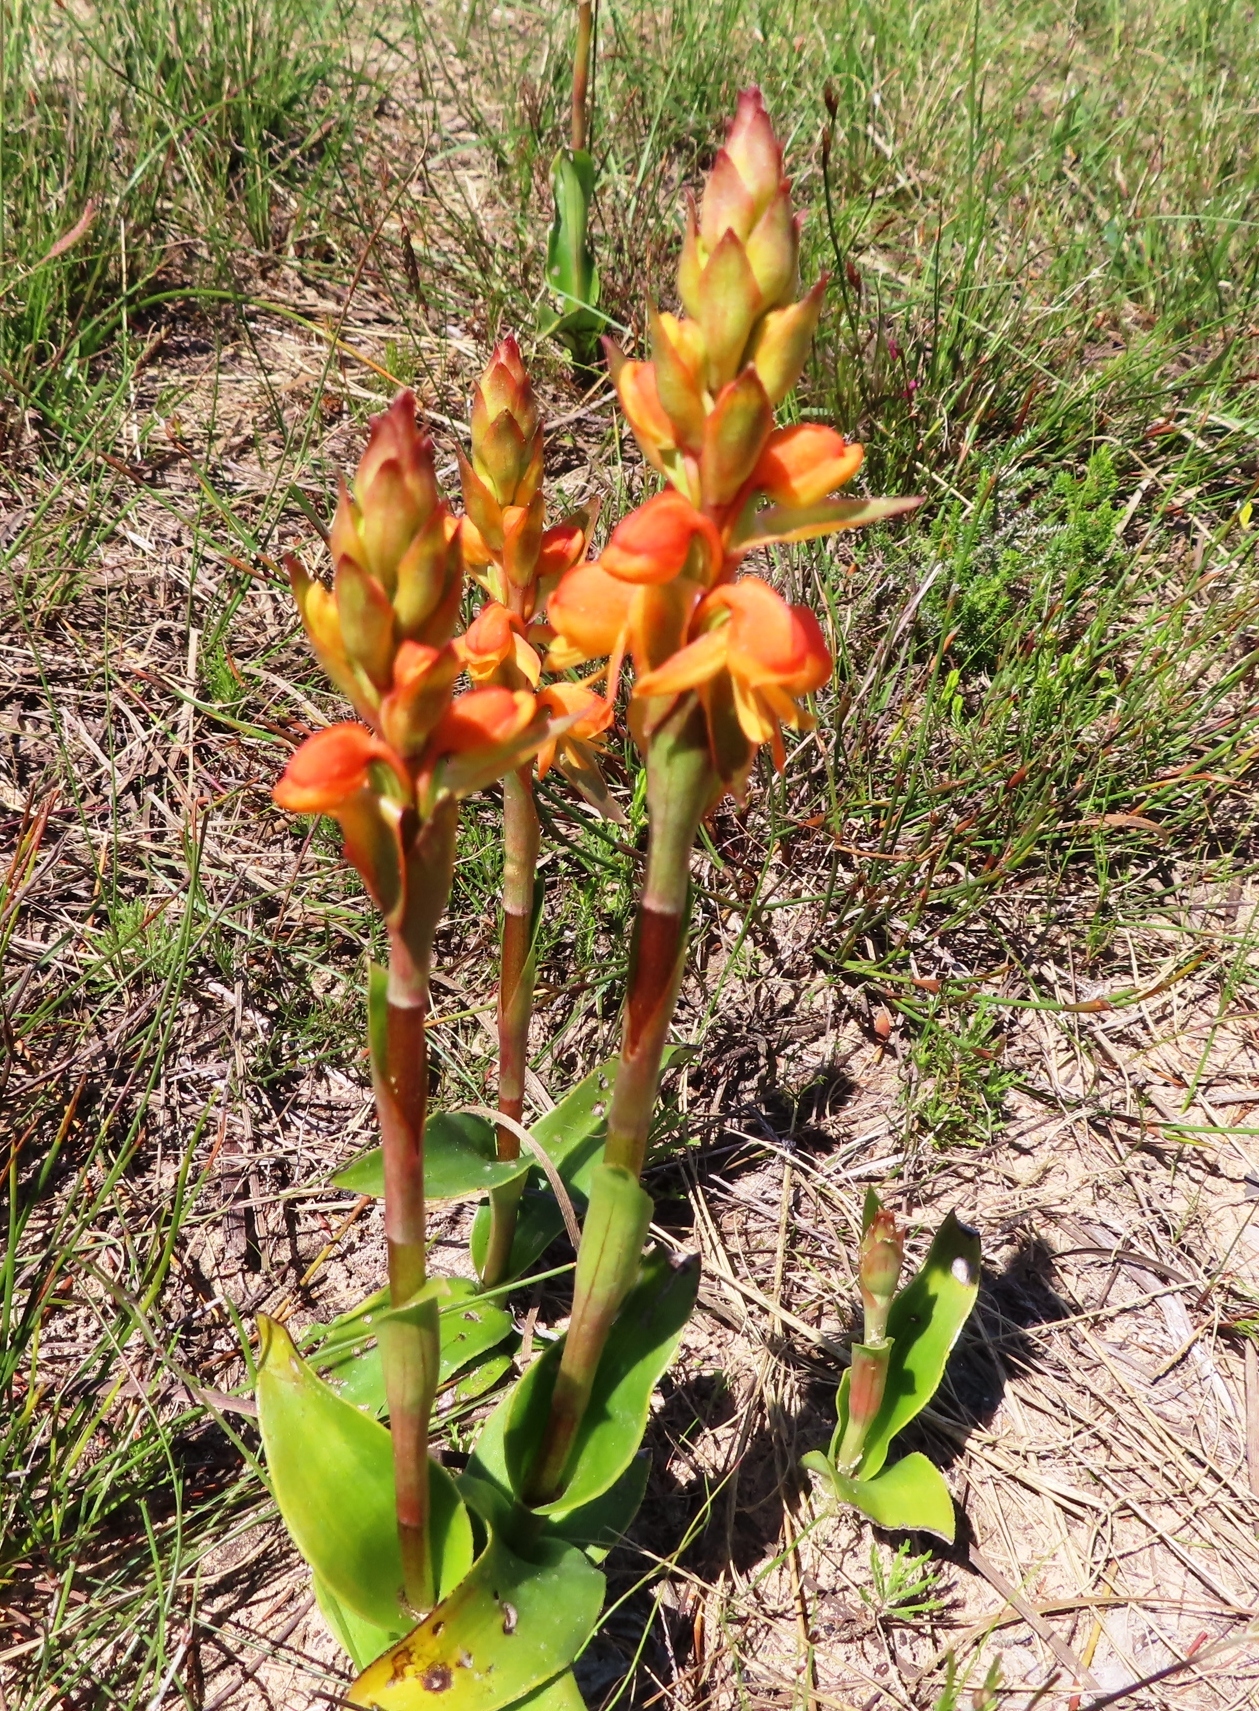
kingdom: Plantae
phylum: Tracheophyta
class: Liliopsida
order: Asparagales
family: Orchidaceae
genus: Satyrium
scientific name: Satyrium coriifolium
